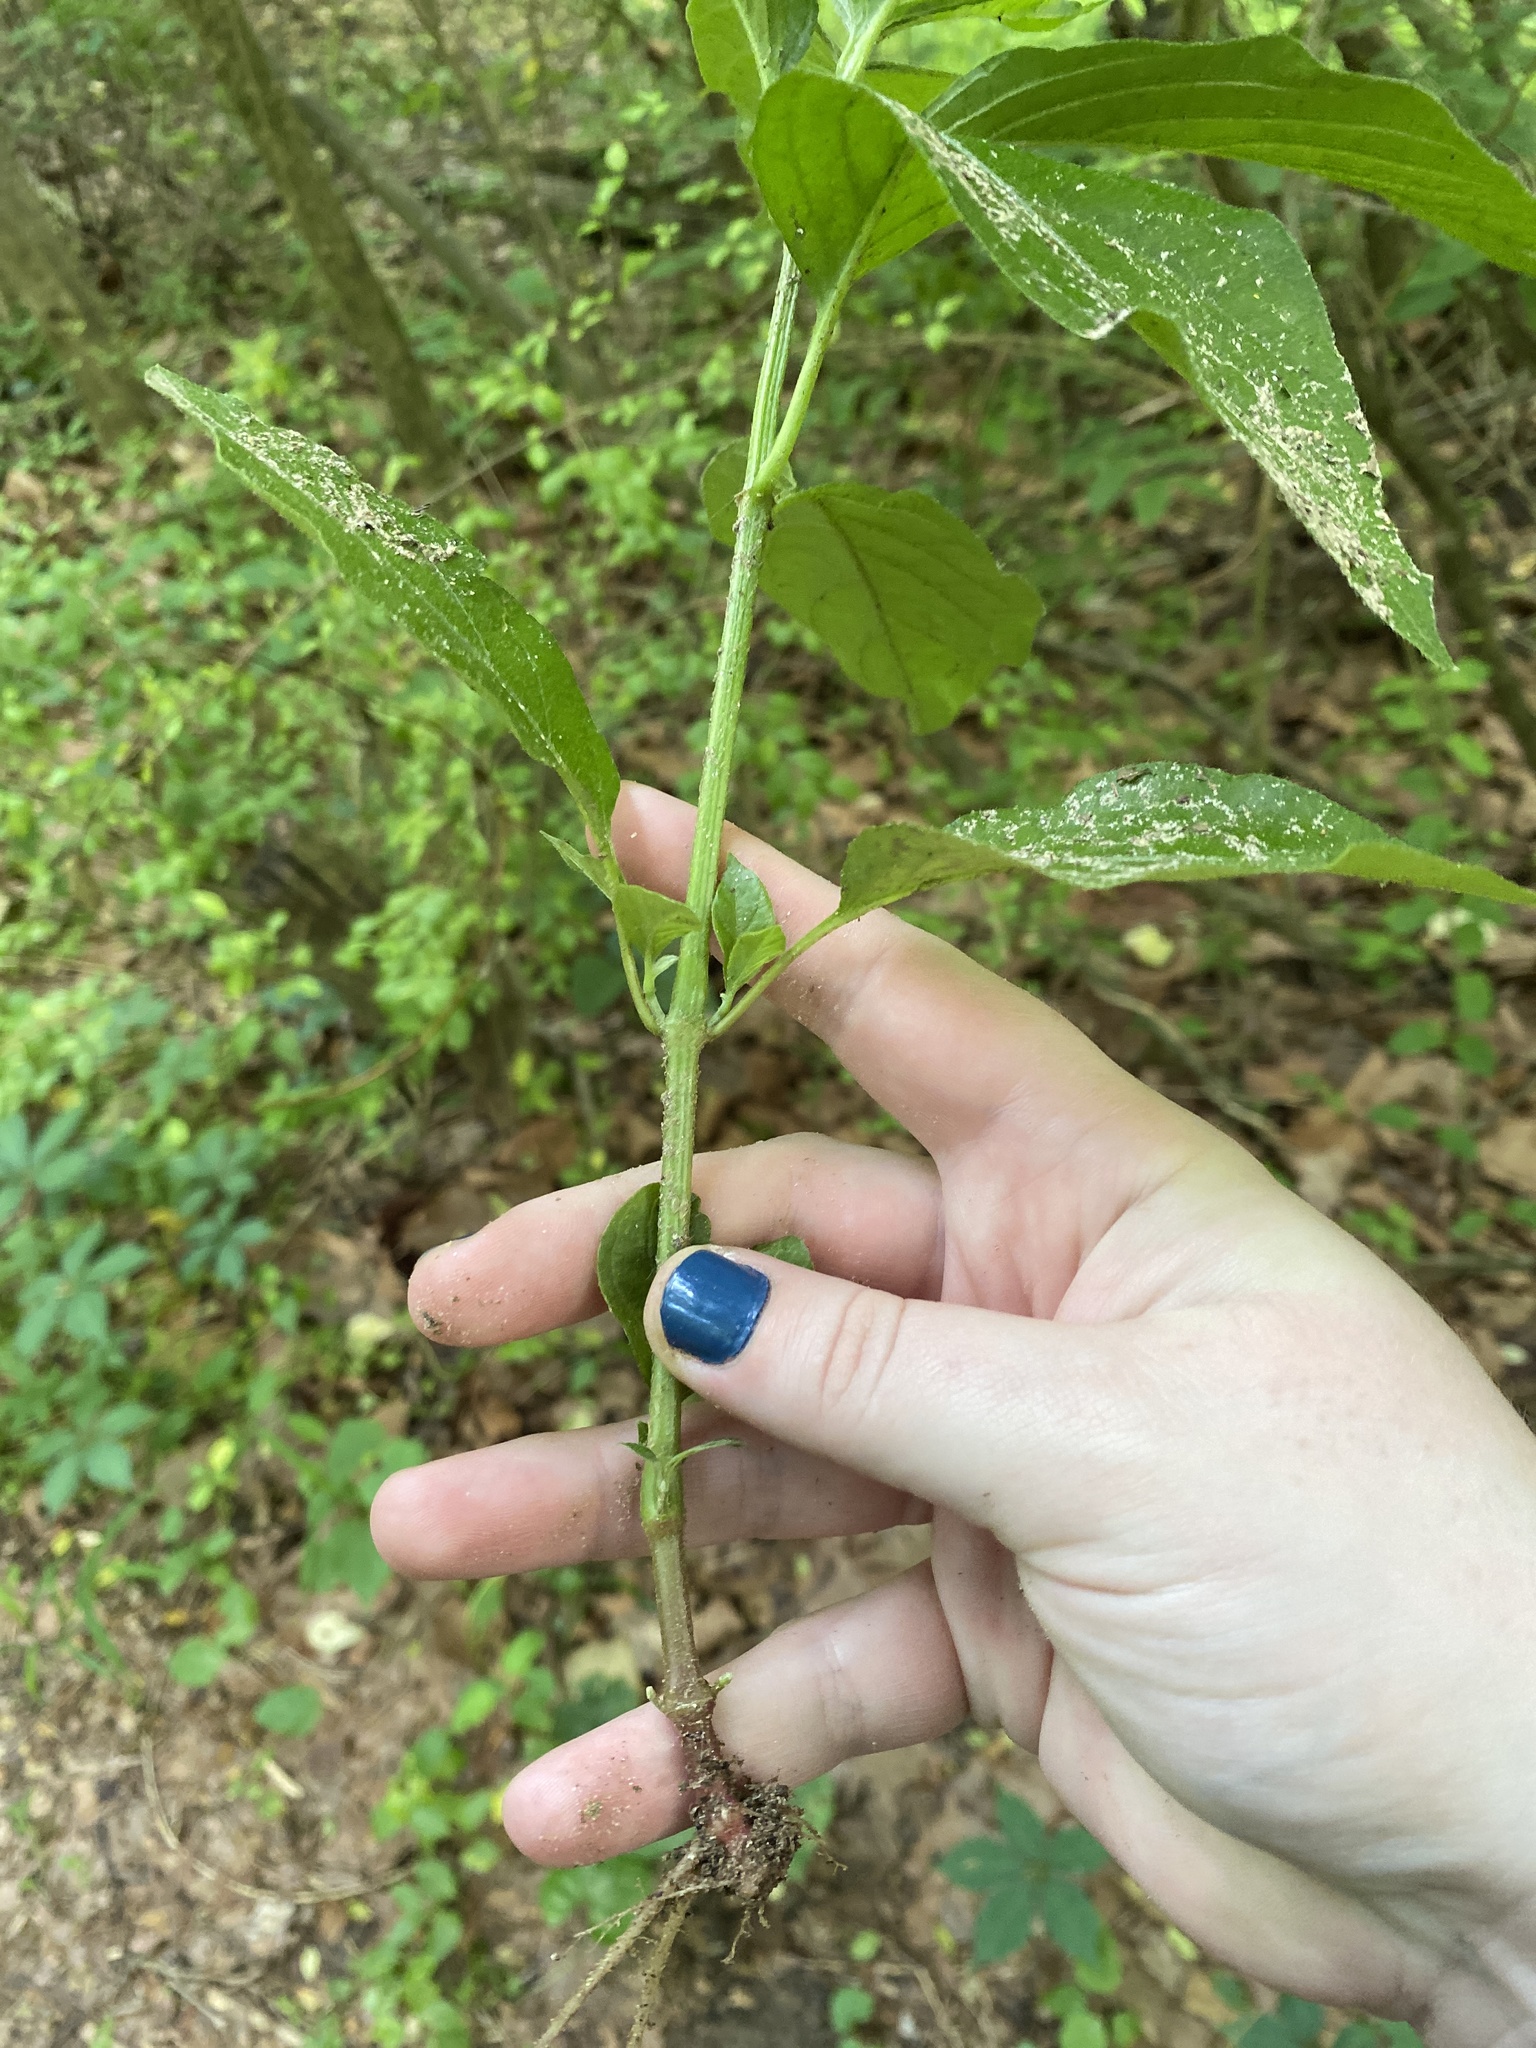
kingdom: Plantae
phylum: Tracheophyta
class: Magnoliopsida
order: Caryophyllales
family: Amaranthaceae
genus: Achyranthes
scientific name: Achyranthes bidentata
